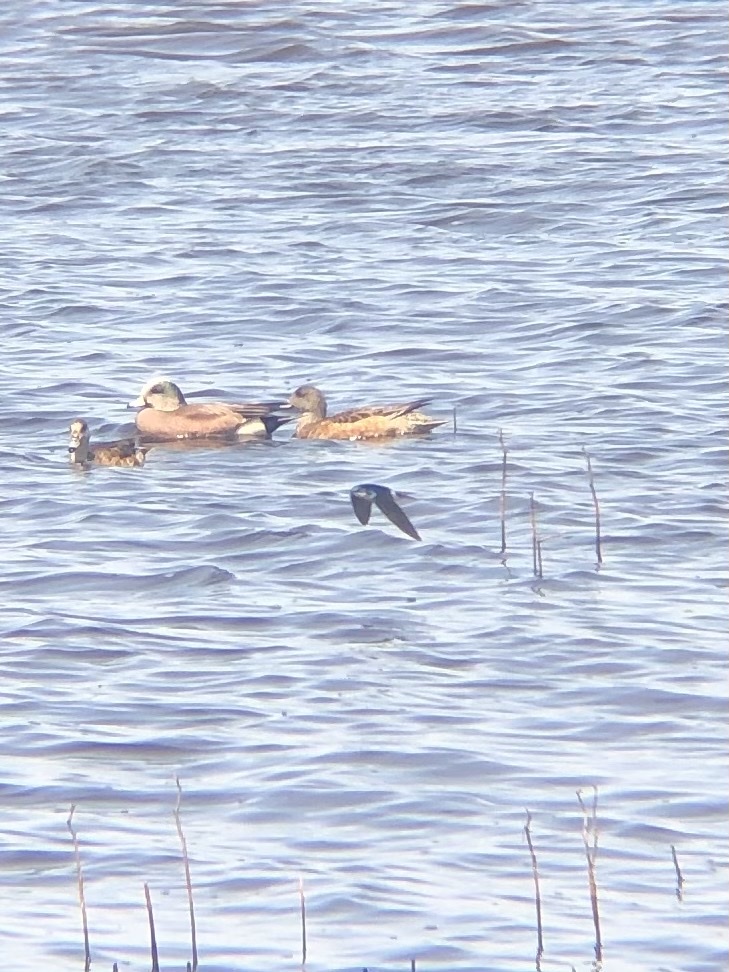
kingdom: Animalia
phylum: Chordata
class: Aves
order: Passeriformes
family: Hirundinidae
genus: Tachycineta
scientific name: Tachycineta bicolor
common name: Tree swallow
